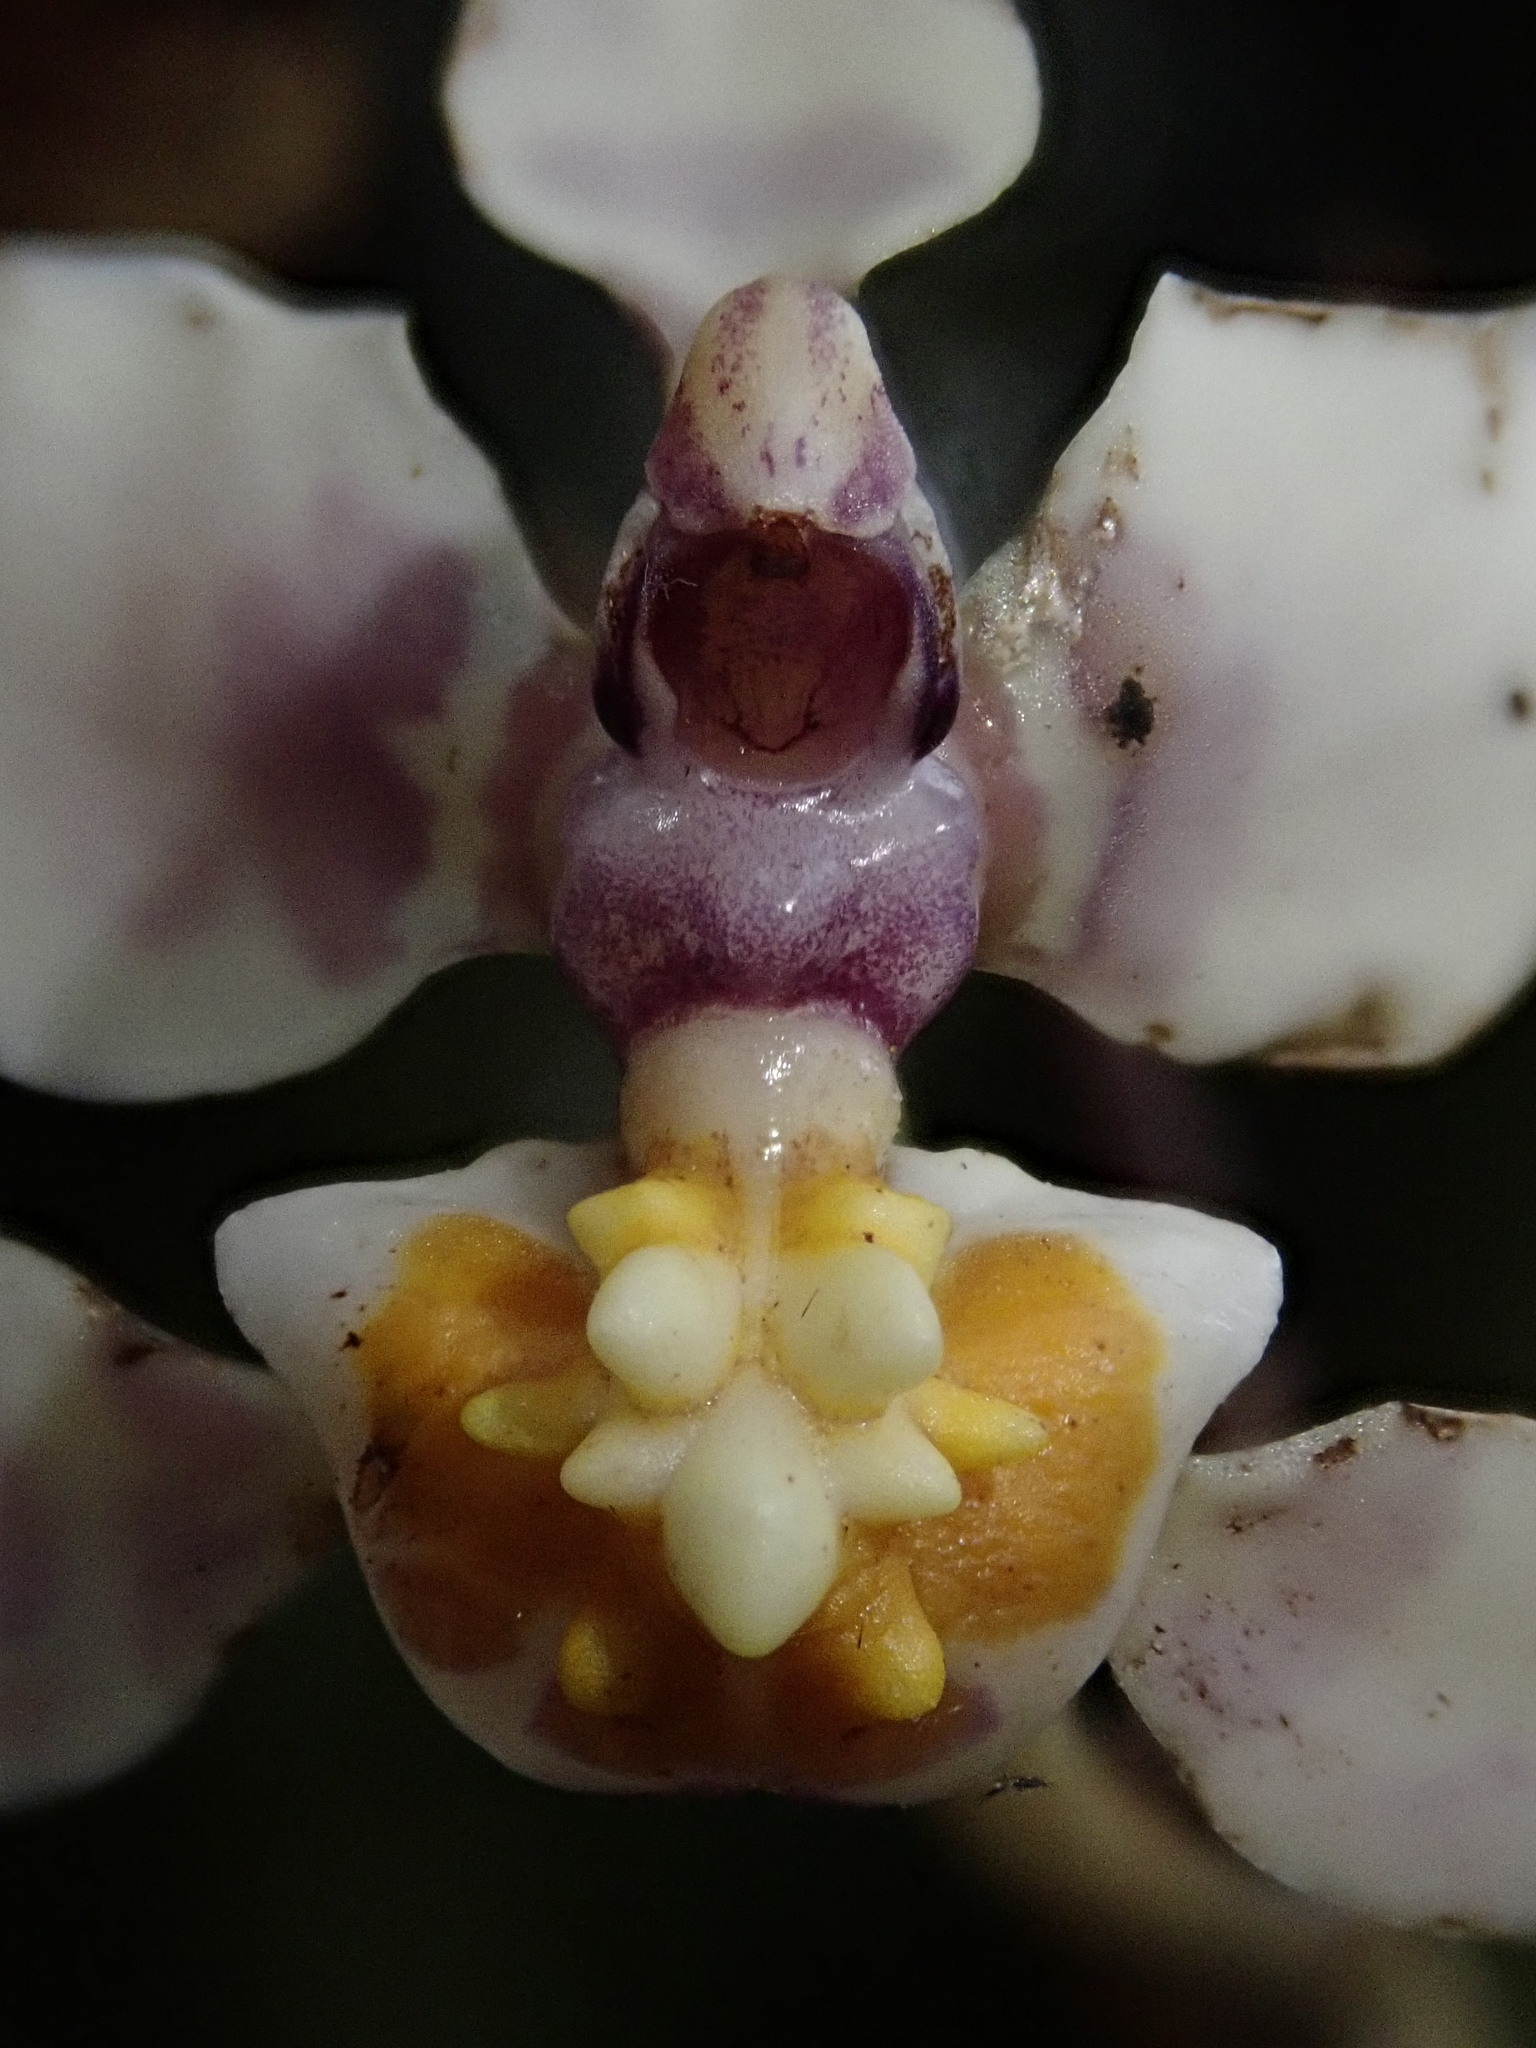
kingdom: Plantae
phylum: Tracheophyta
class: Liliopsida
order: Asparagales
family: Orchidaceae
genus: Cyrtochilum
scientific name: Cyrtochilum midas
